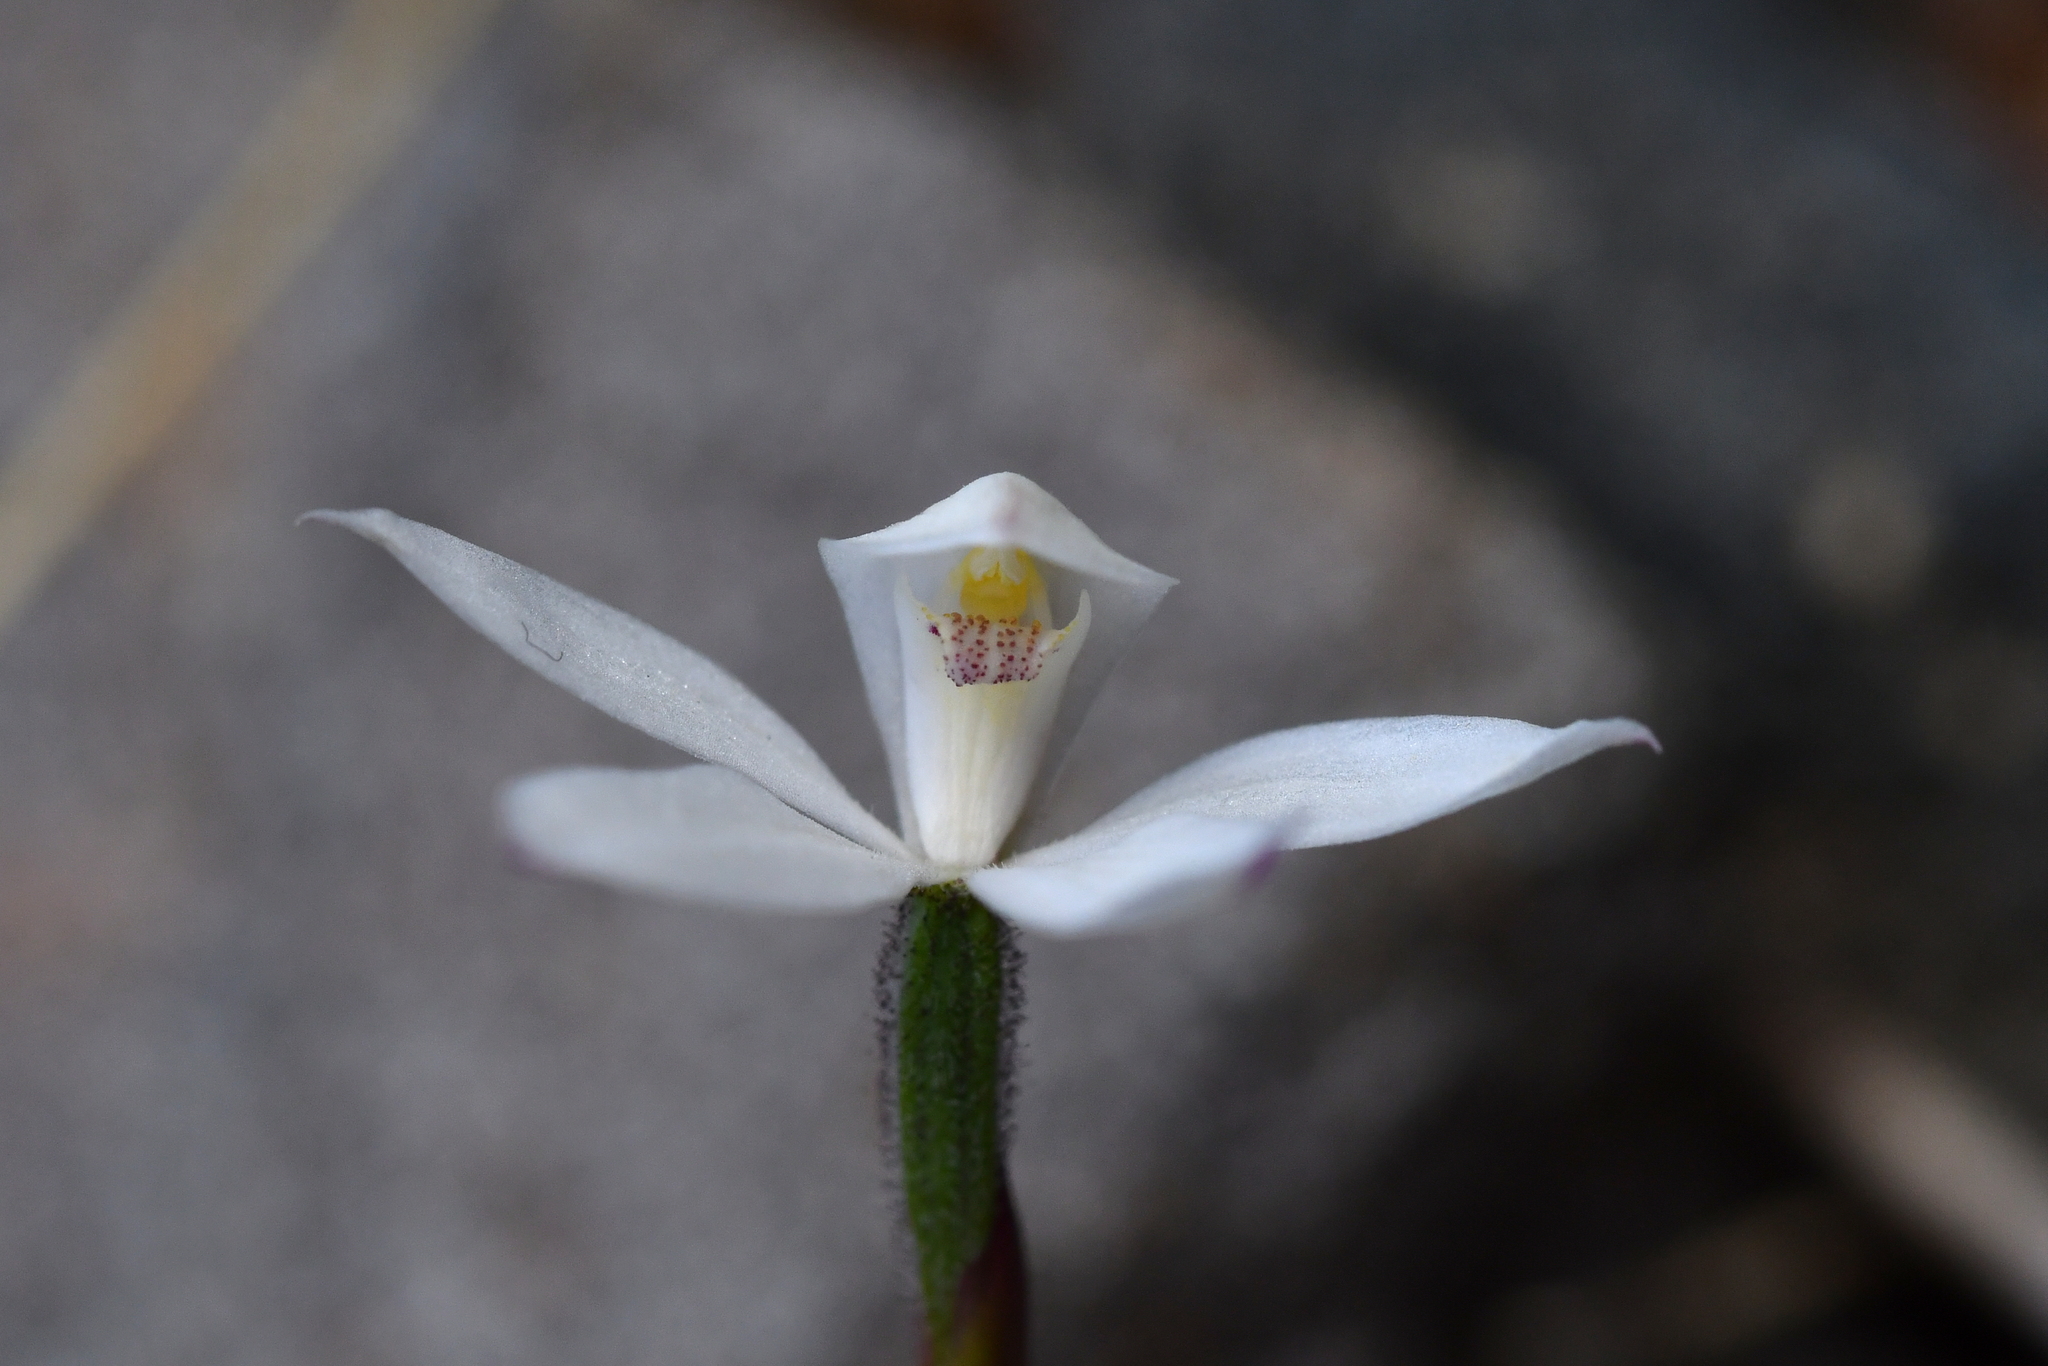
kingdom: Plantae
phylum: Tracheophyta
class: Liliopsida
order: Asparagales
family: Orchidaceae
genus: Caladenia
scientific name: Caladenia lyallii
